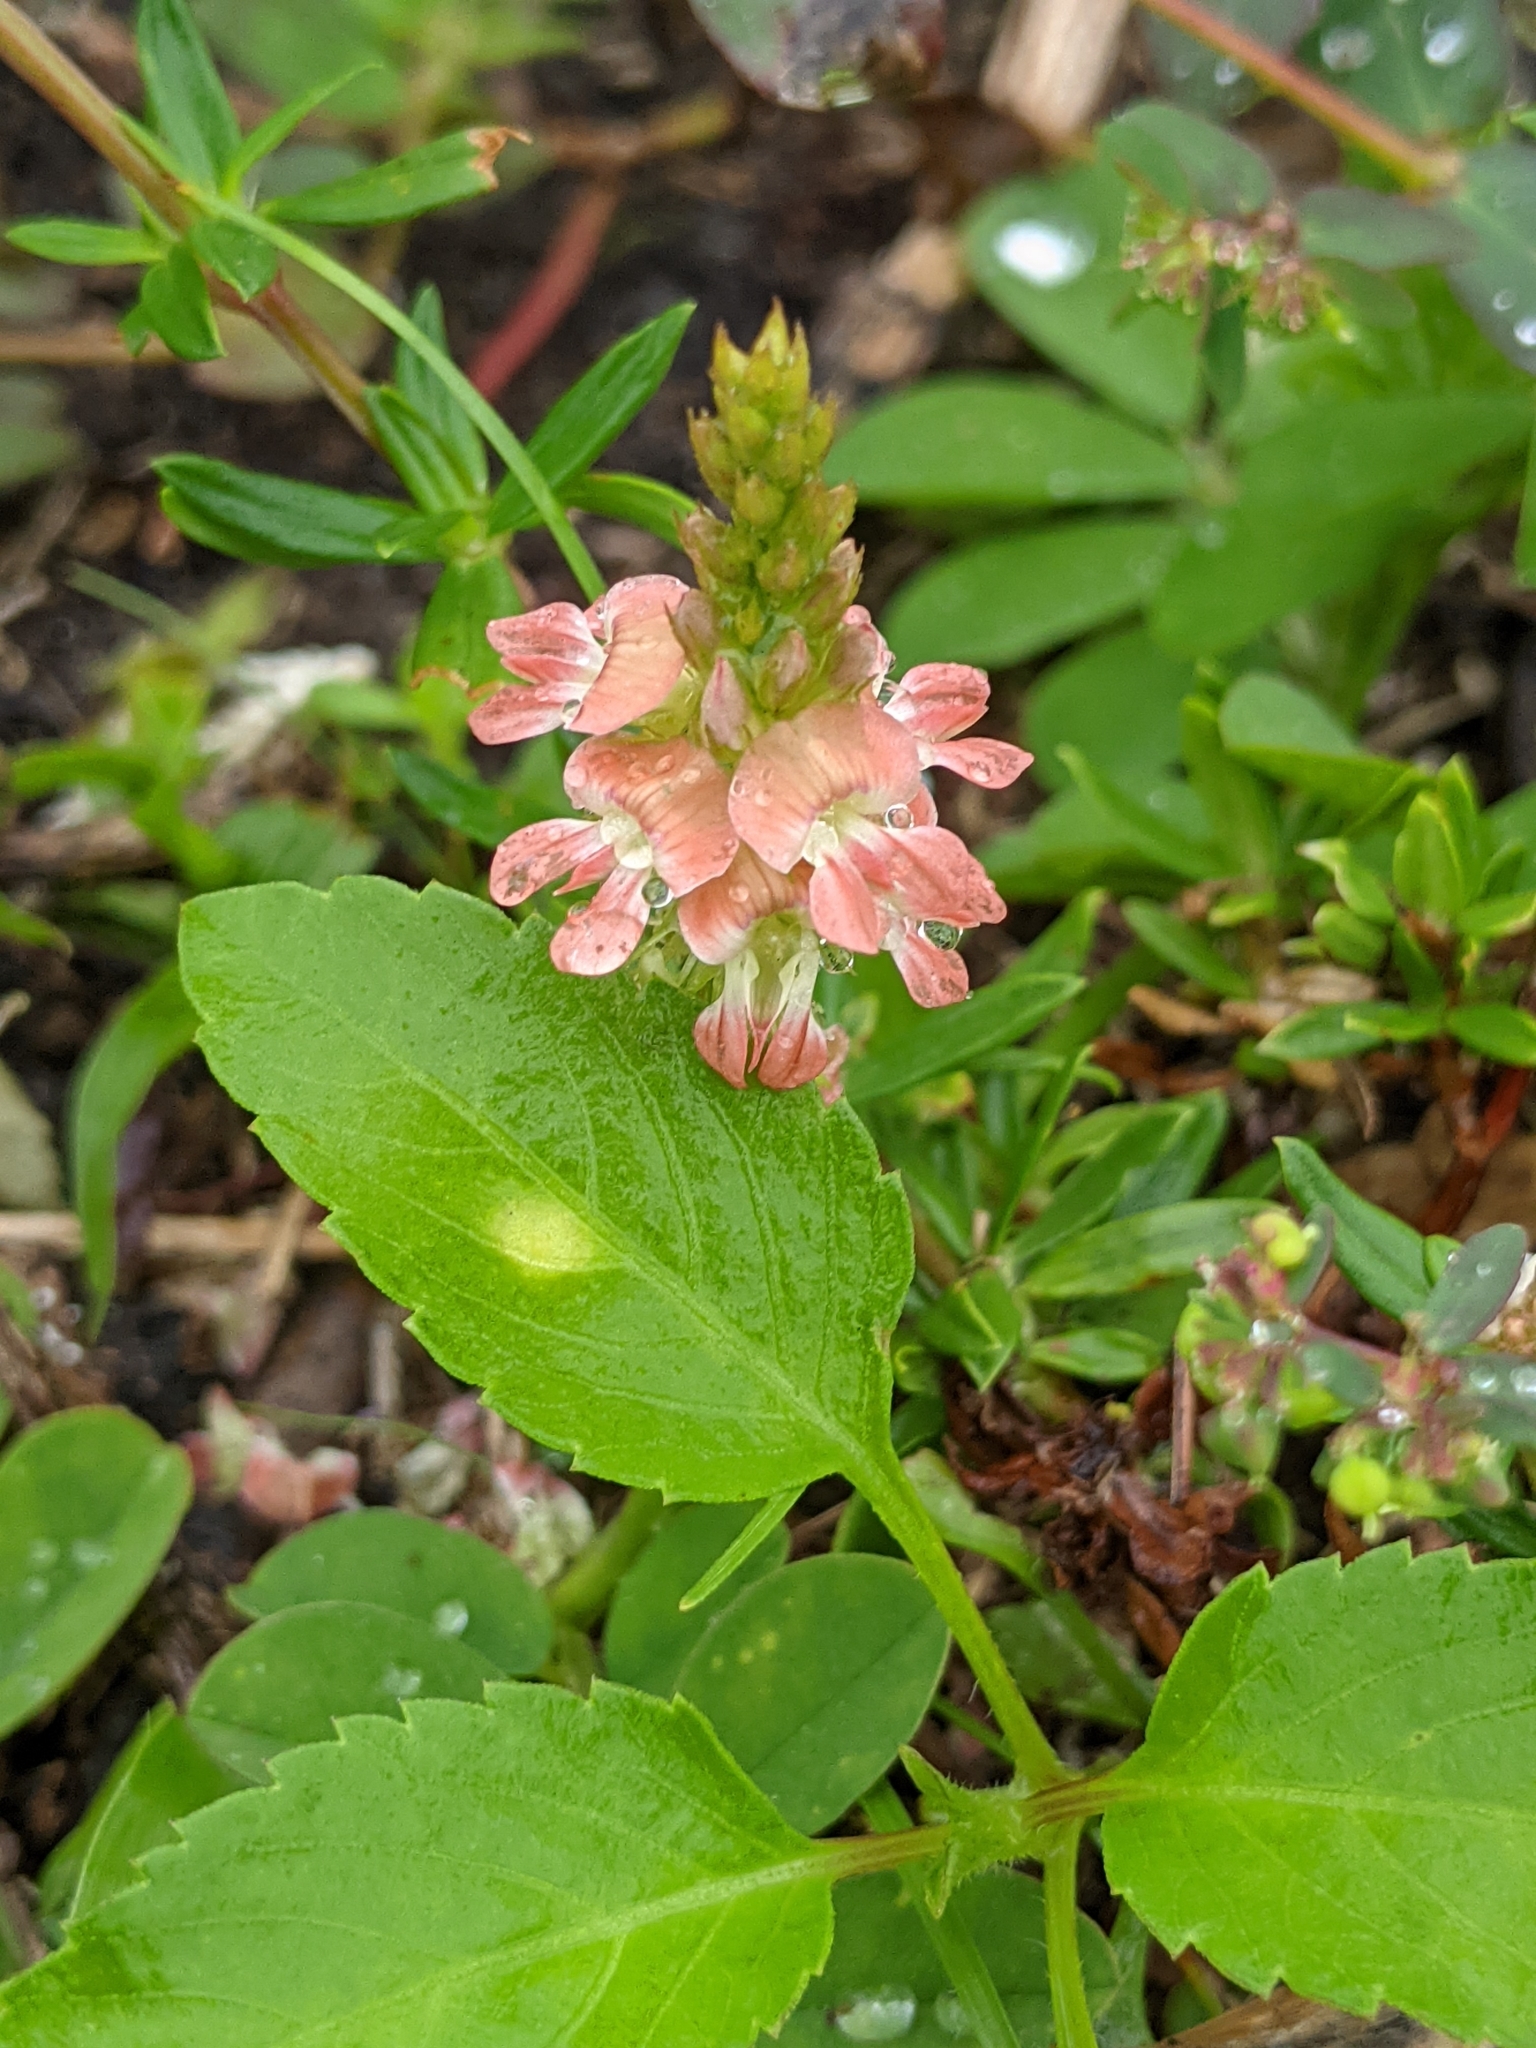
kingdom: Plantae
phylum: Tracheophyta
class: Magnoliopsida
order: Fabales
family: Fabaceae
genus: Indigofera
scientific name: Indigofera spicata
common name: Creeping indigo
